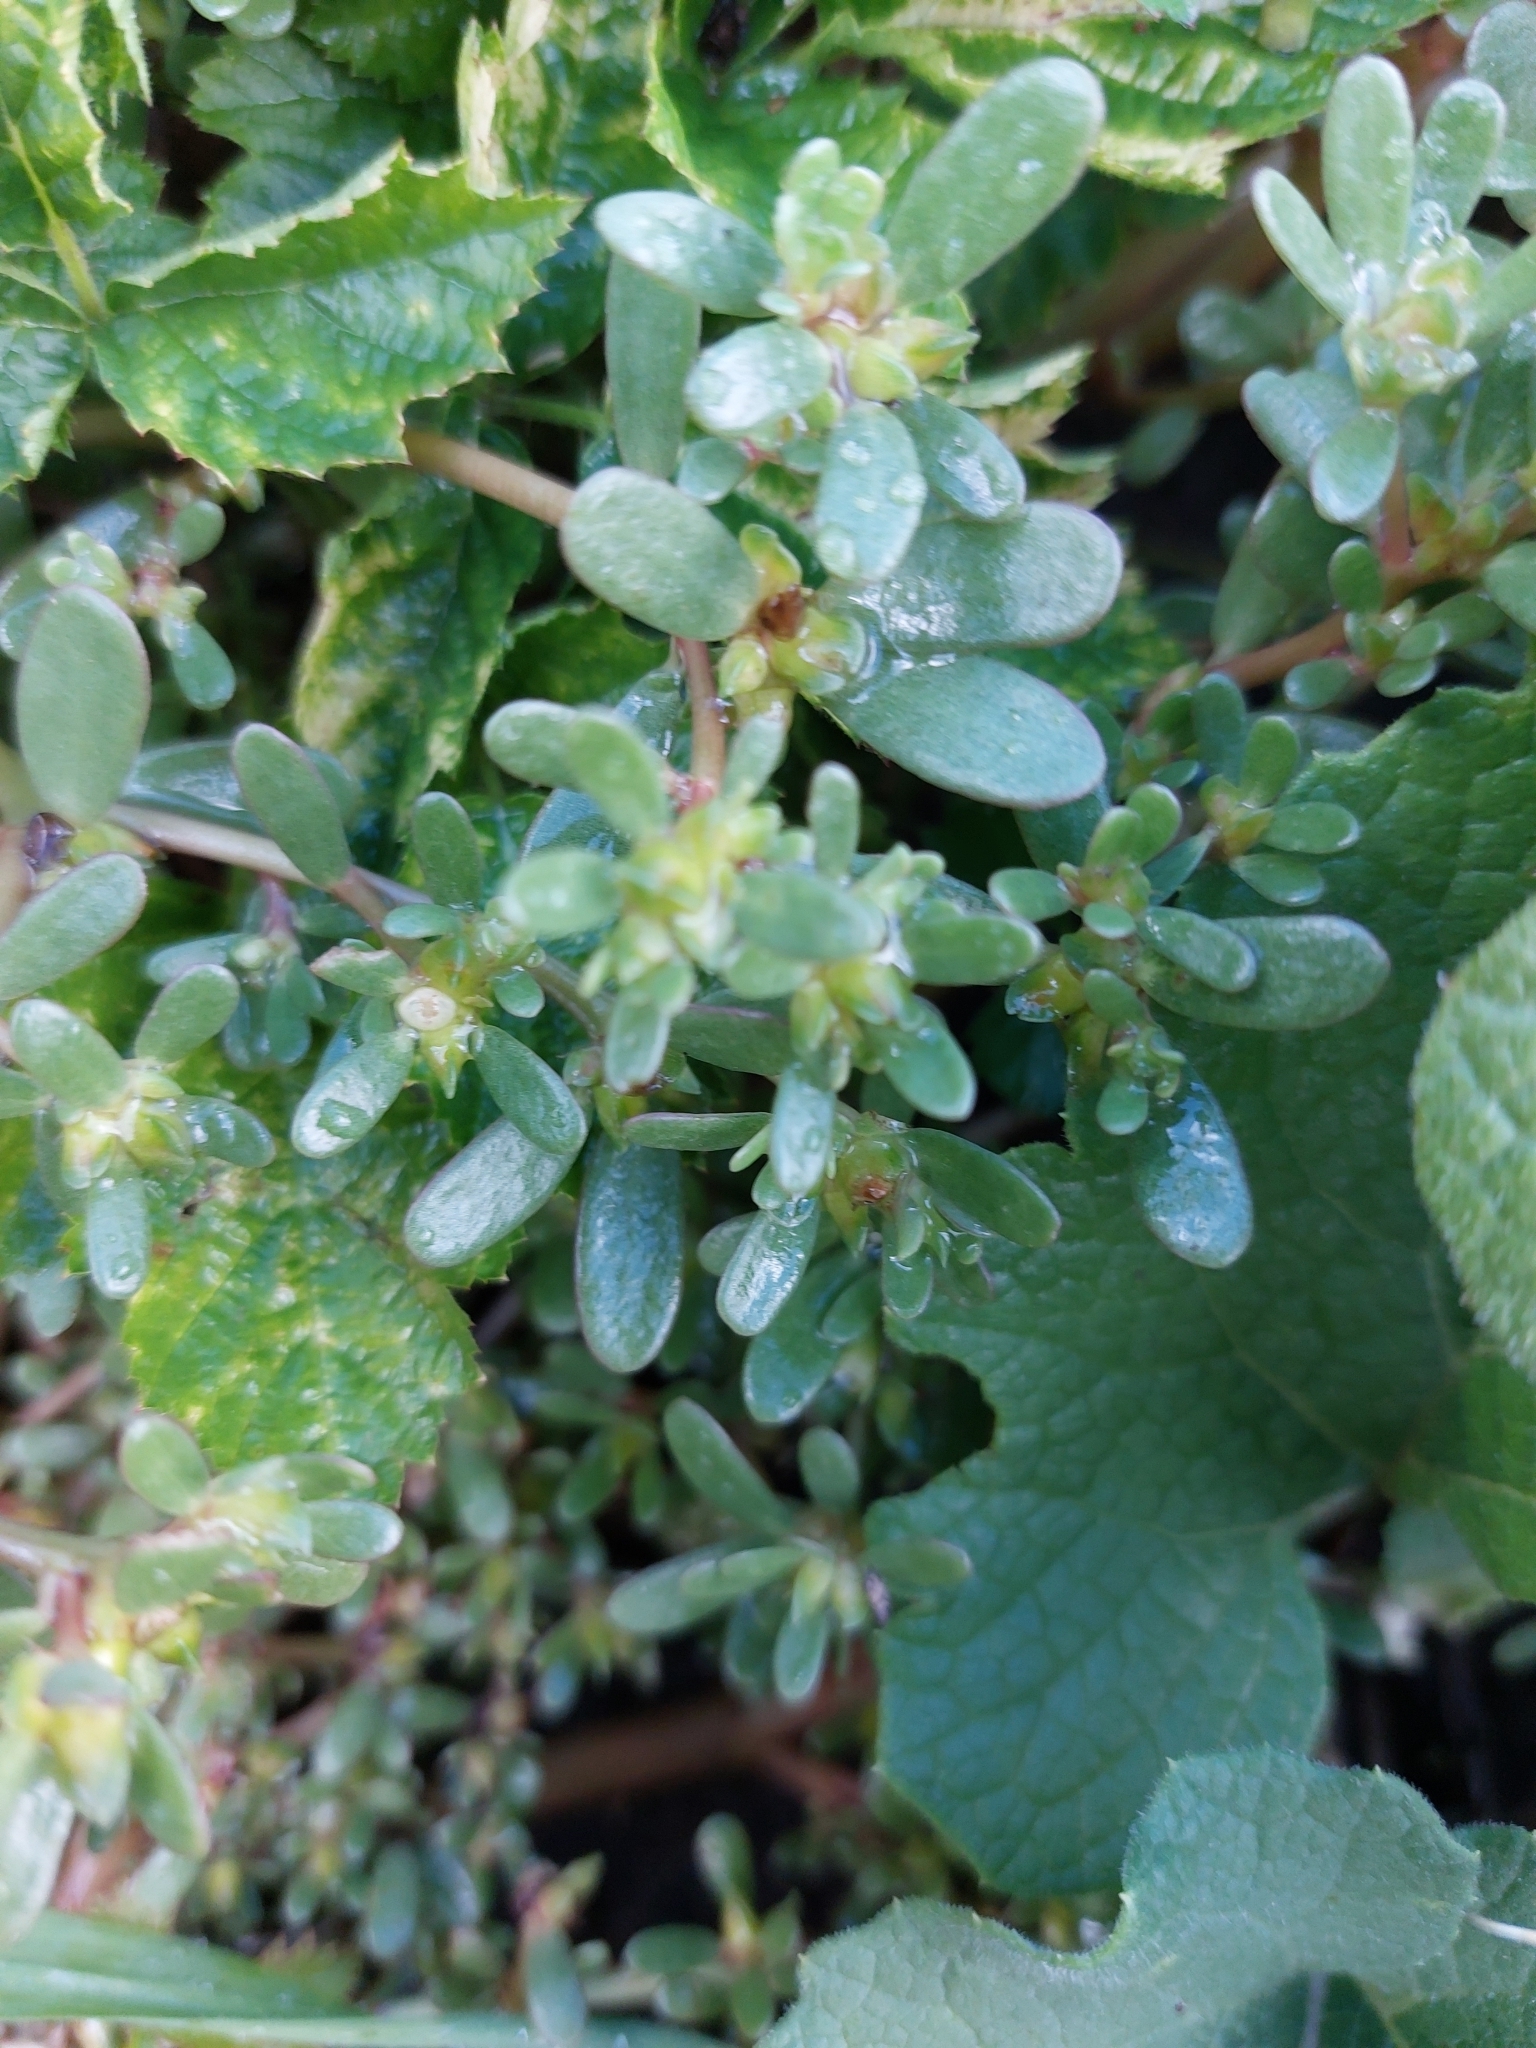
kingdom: Plantae
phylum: Tracheophyta
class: Magnoliopsida
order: Caryophyllales
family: Portulacaceae
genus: Portulaca
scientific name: Portulaca oleracea
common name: Common purslane
